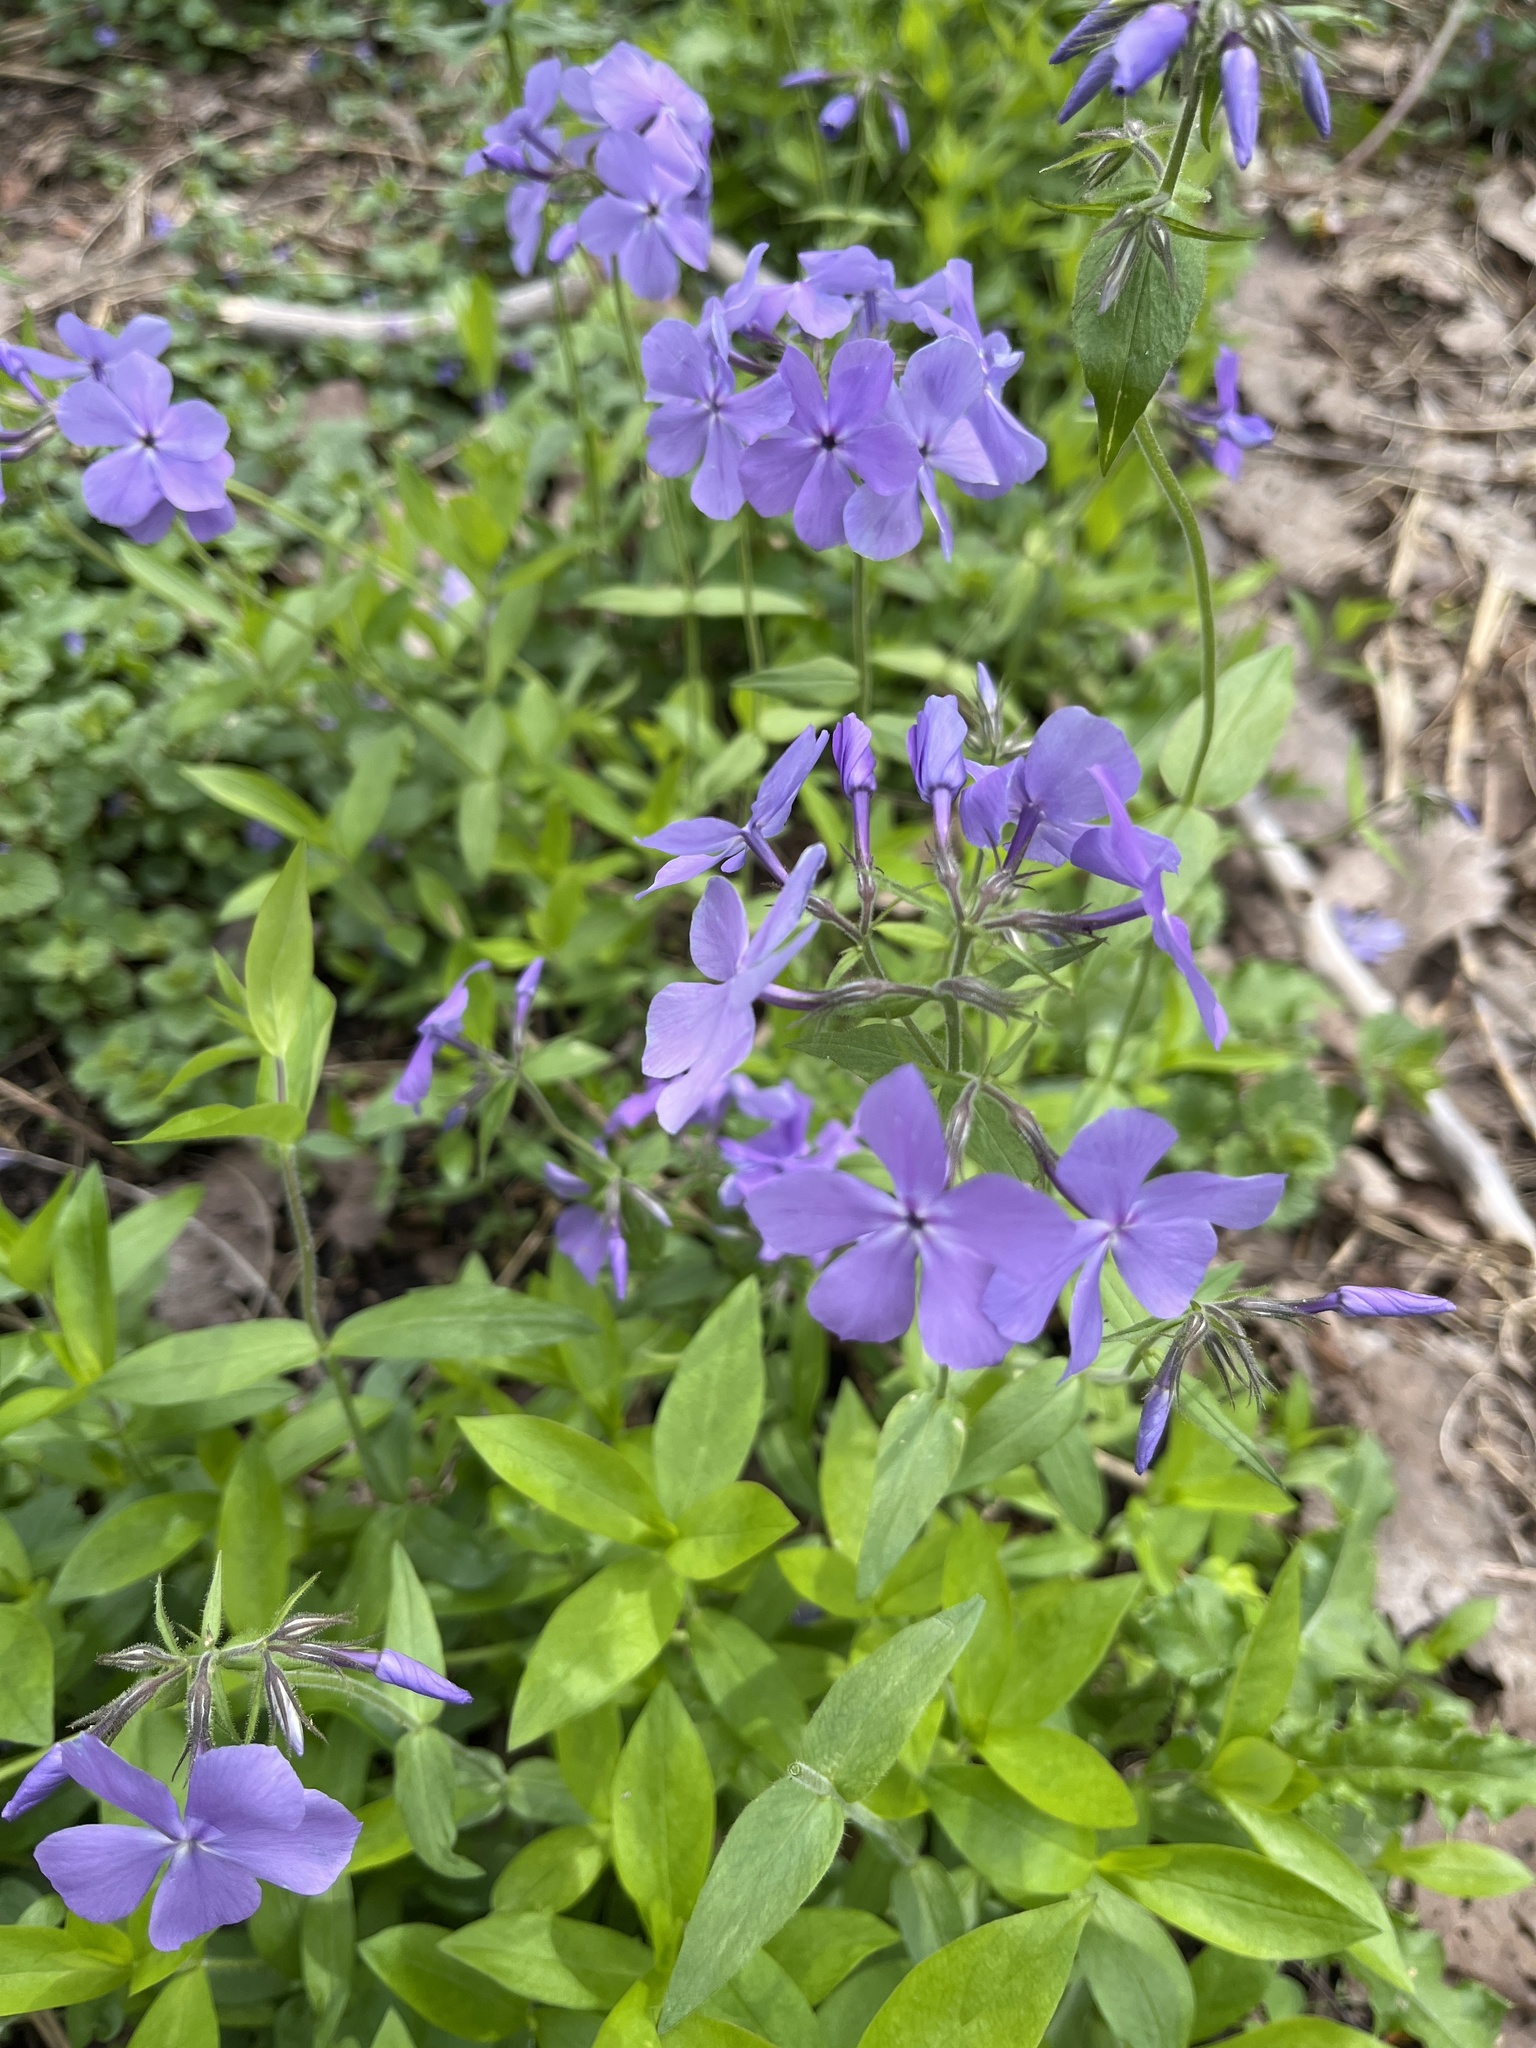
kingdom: Plantae
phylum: Tracheophyta
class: Magnoliopsida
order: Ericales
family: Polemoniaceae
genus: Phlox
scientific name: Phlox divaricata
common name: Blue phlox
